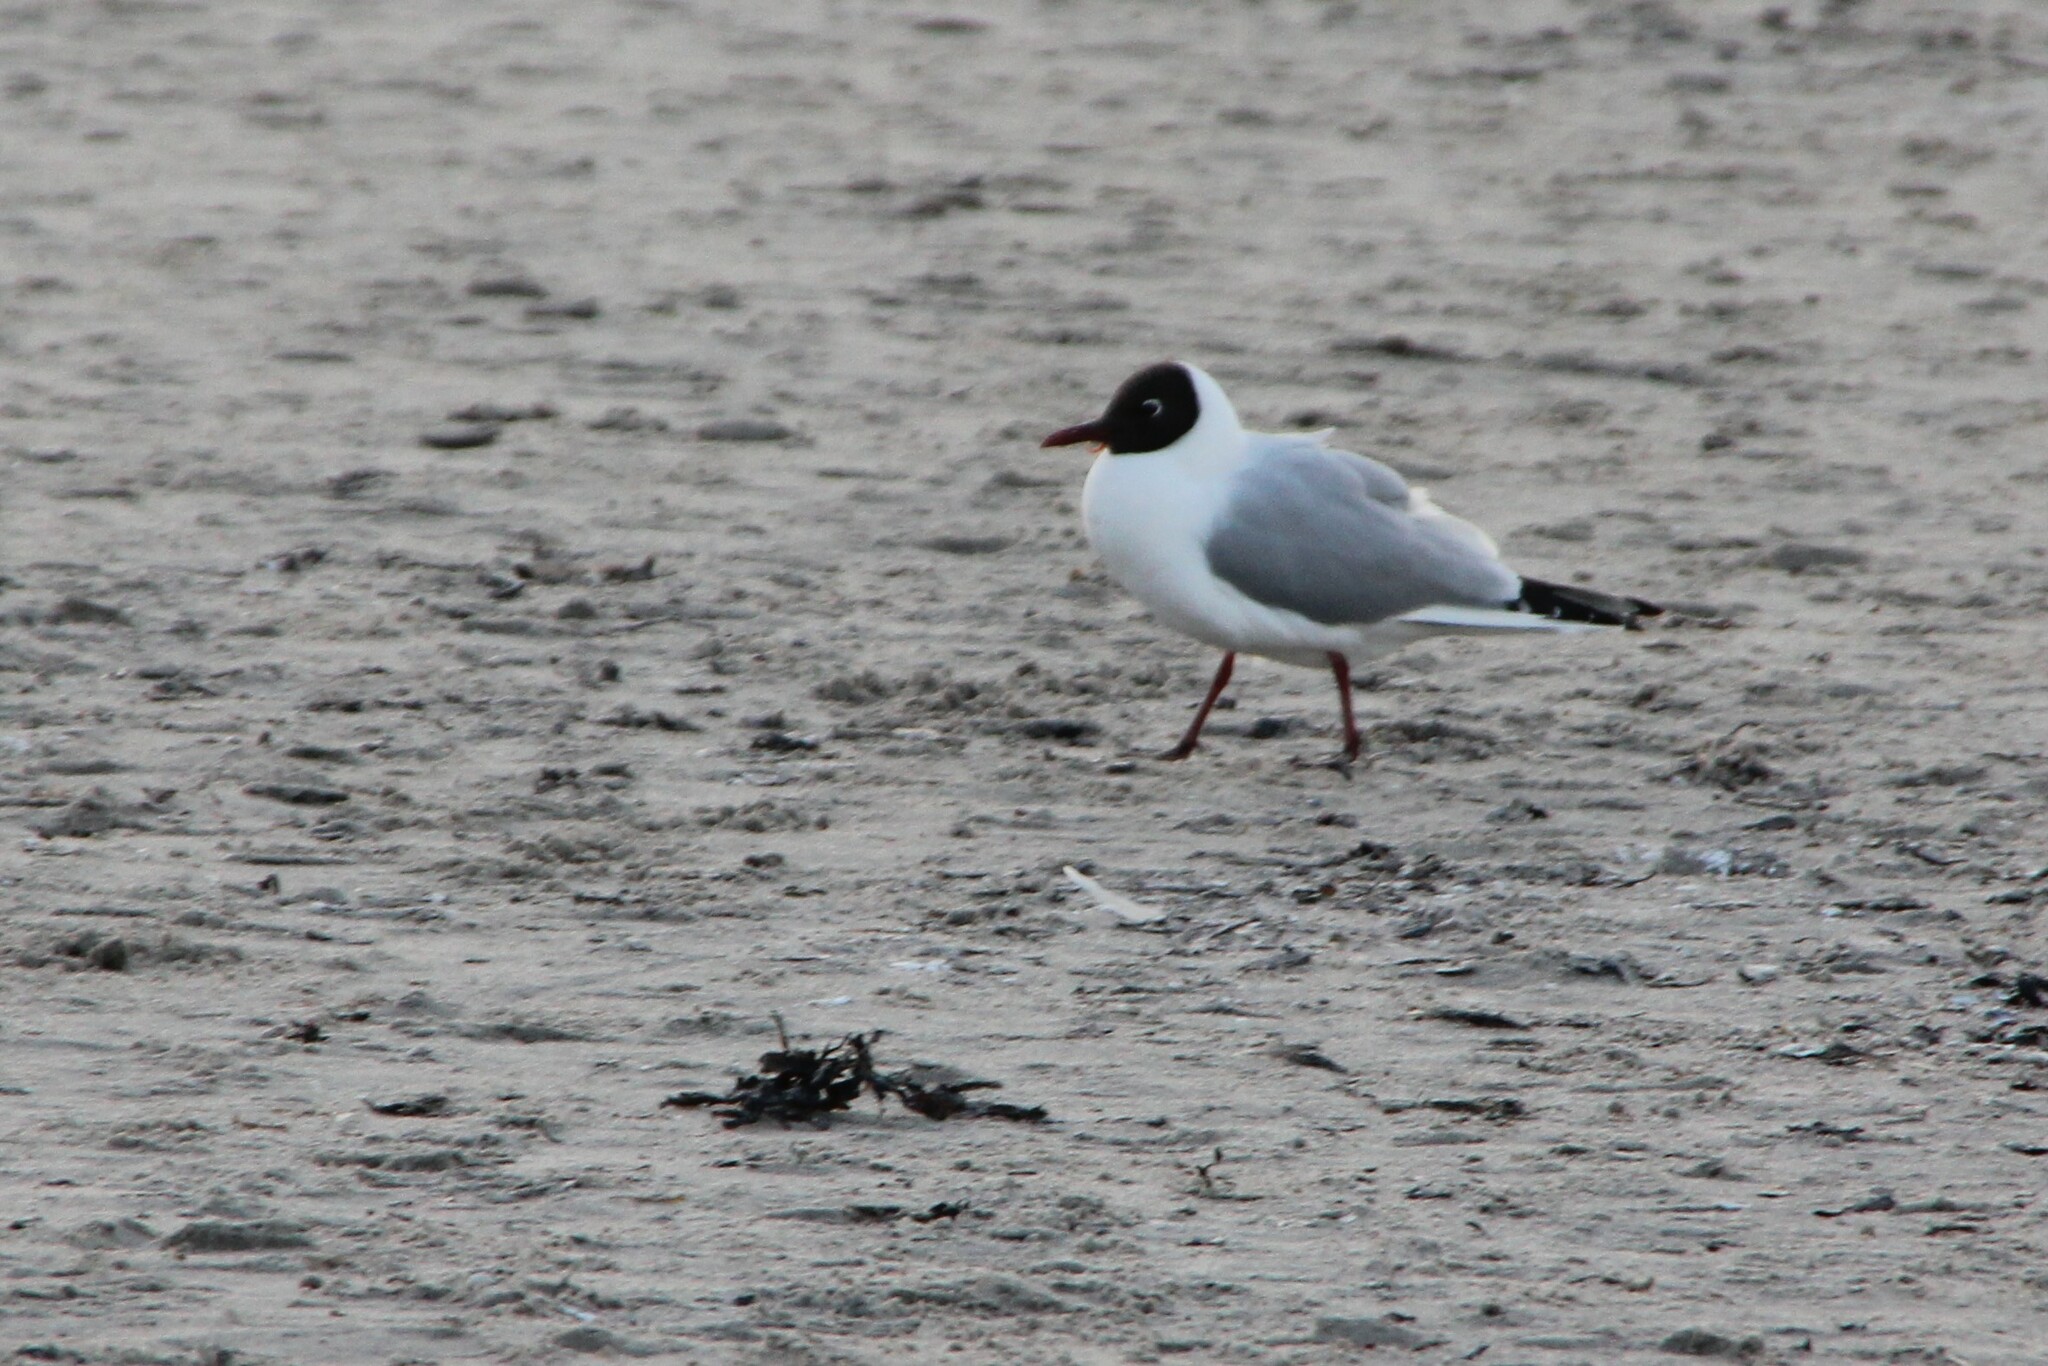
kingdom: Animalia
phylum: Chordata
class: Aves
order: Charadriiformes
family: Laridae
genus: Chroicocephalus
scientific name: Chroicocephalus ridibundus
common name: Black-headed gull
